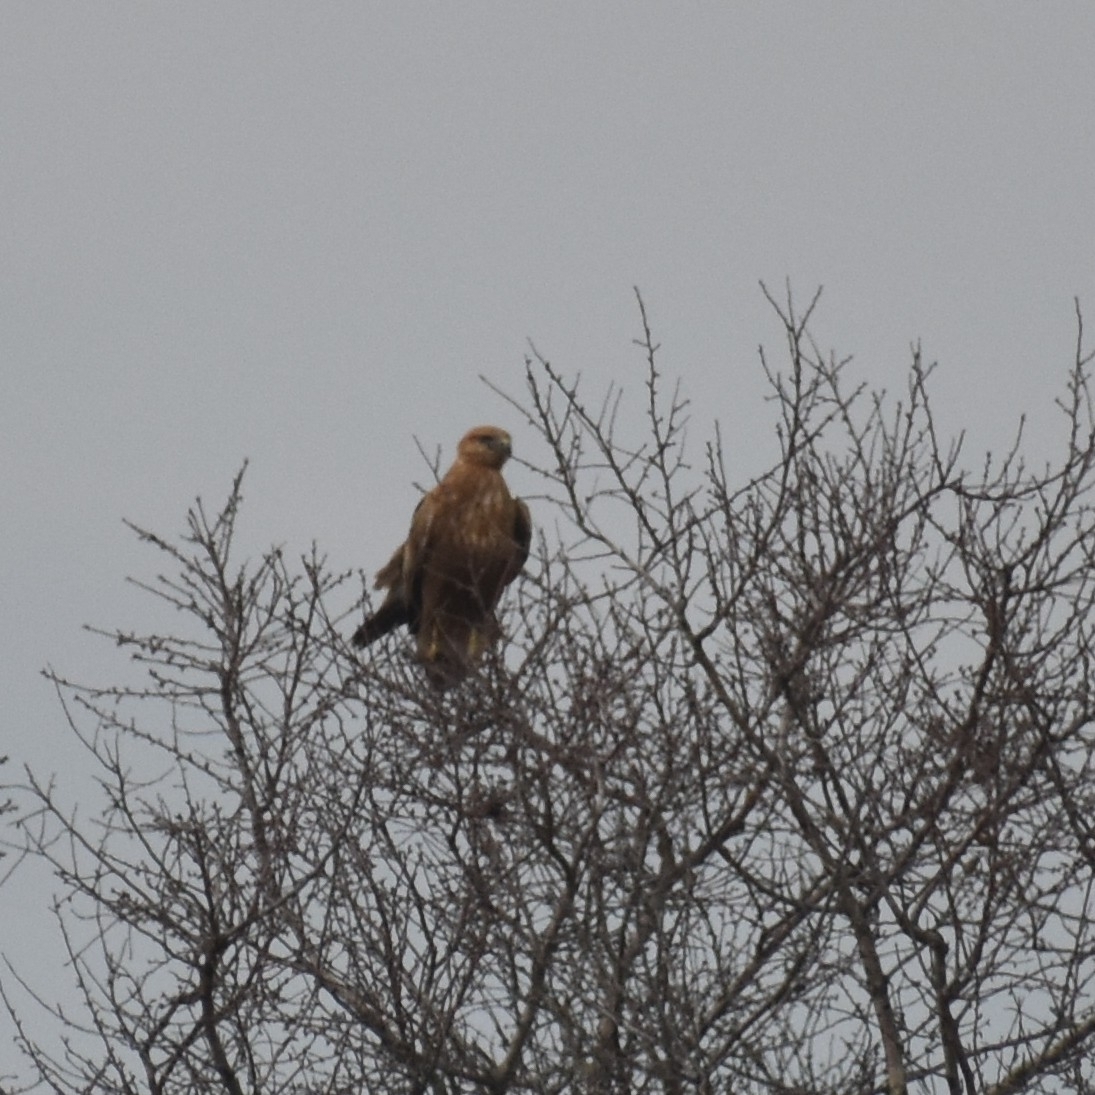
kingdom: Animalia
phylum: Chordata
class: Aves
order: Accipitriformes
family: Accipitridae
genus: Buteo
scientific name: Buteo buteo
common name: Common buzzard
